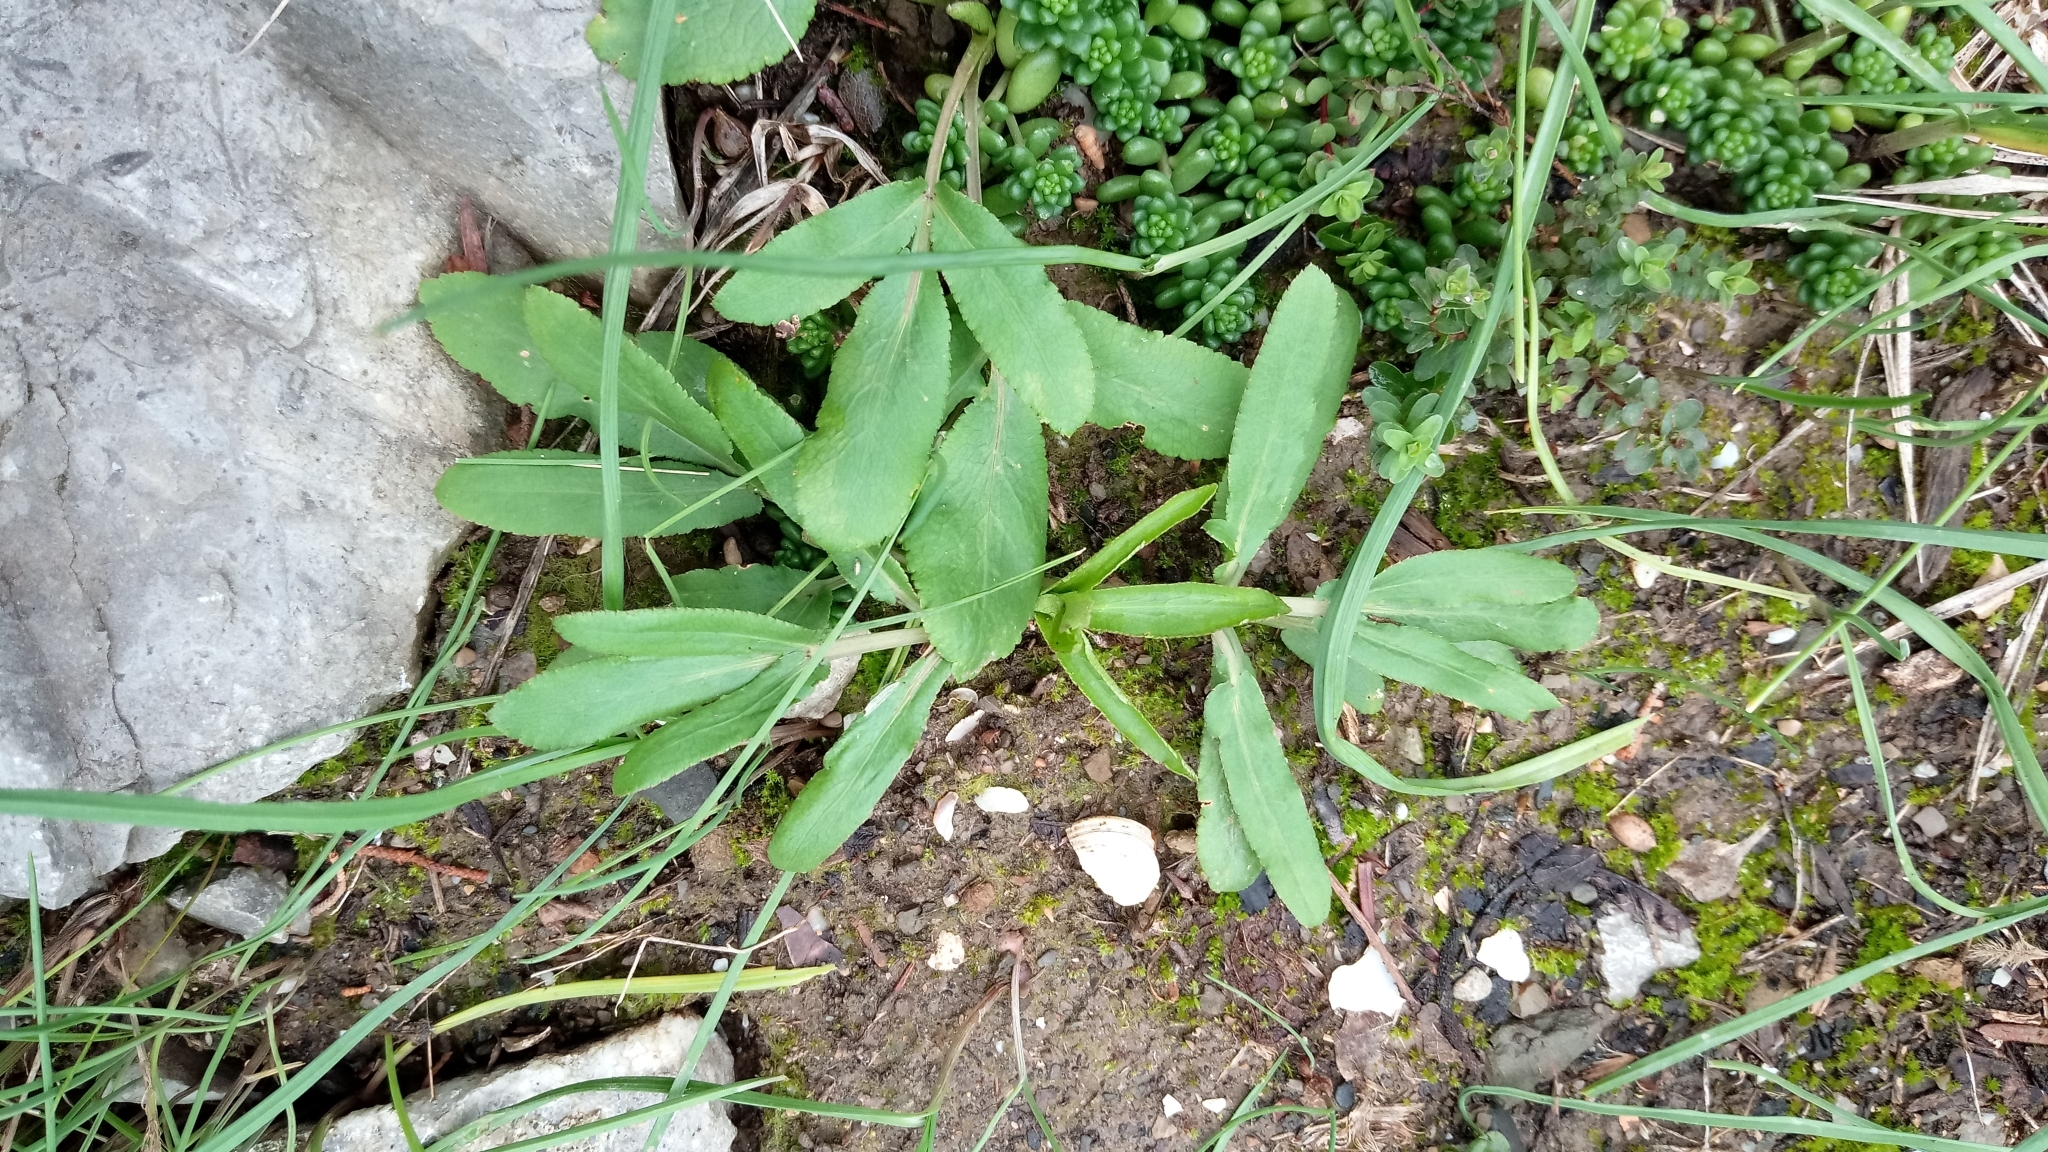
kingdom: Plantae
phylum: Tracheophyta
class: Magnoliopsida
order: Apiales
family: Apiaceae
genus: Falcaria
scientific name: Falcaria vulgaris
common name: Longleaf
